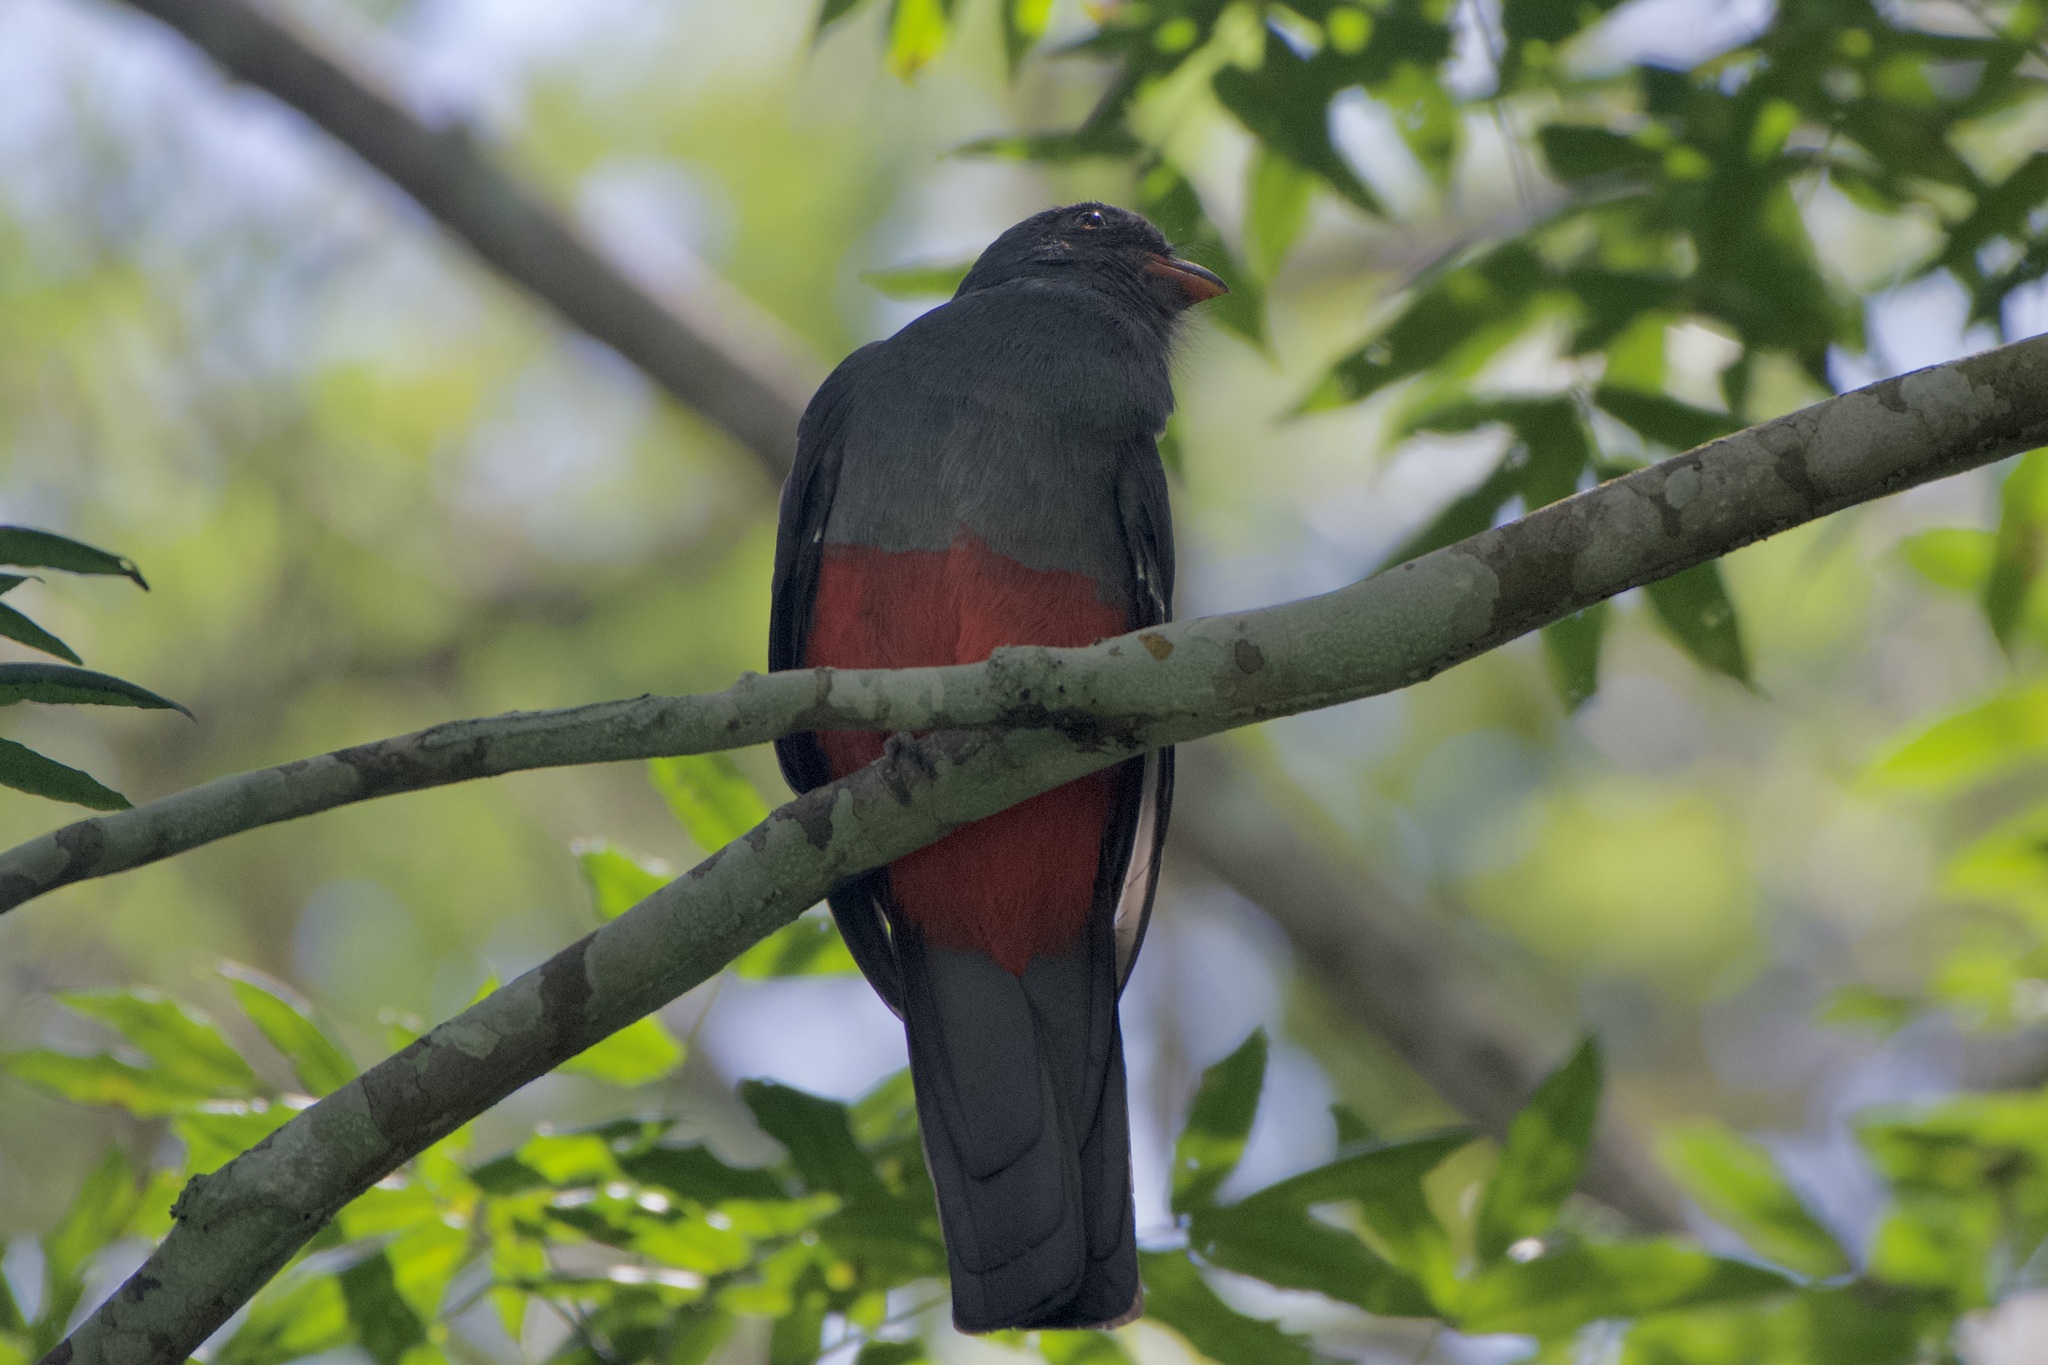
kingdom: Animalia
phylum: Chordata
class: Aves
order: Trogoniformes
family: Trogonidae
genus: Trogon
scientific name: Trogon massena
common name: Slaty-tailed trogon
